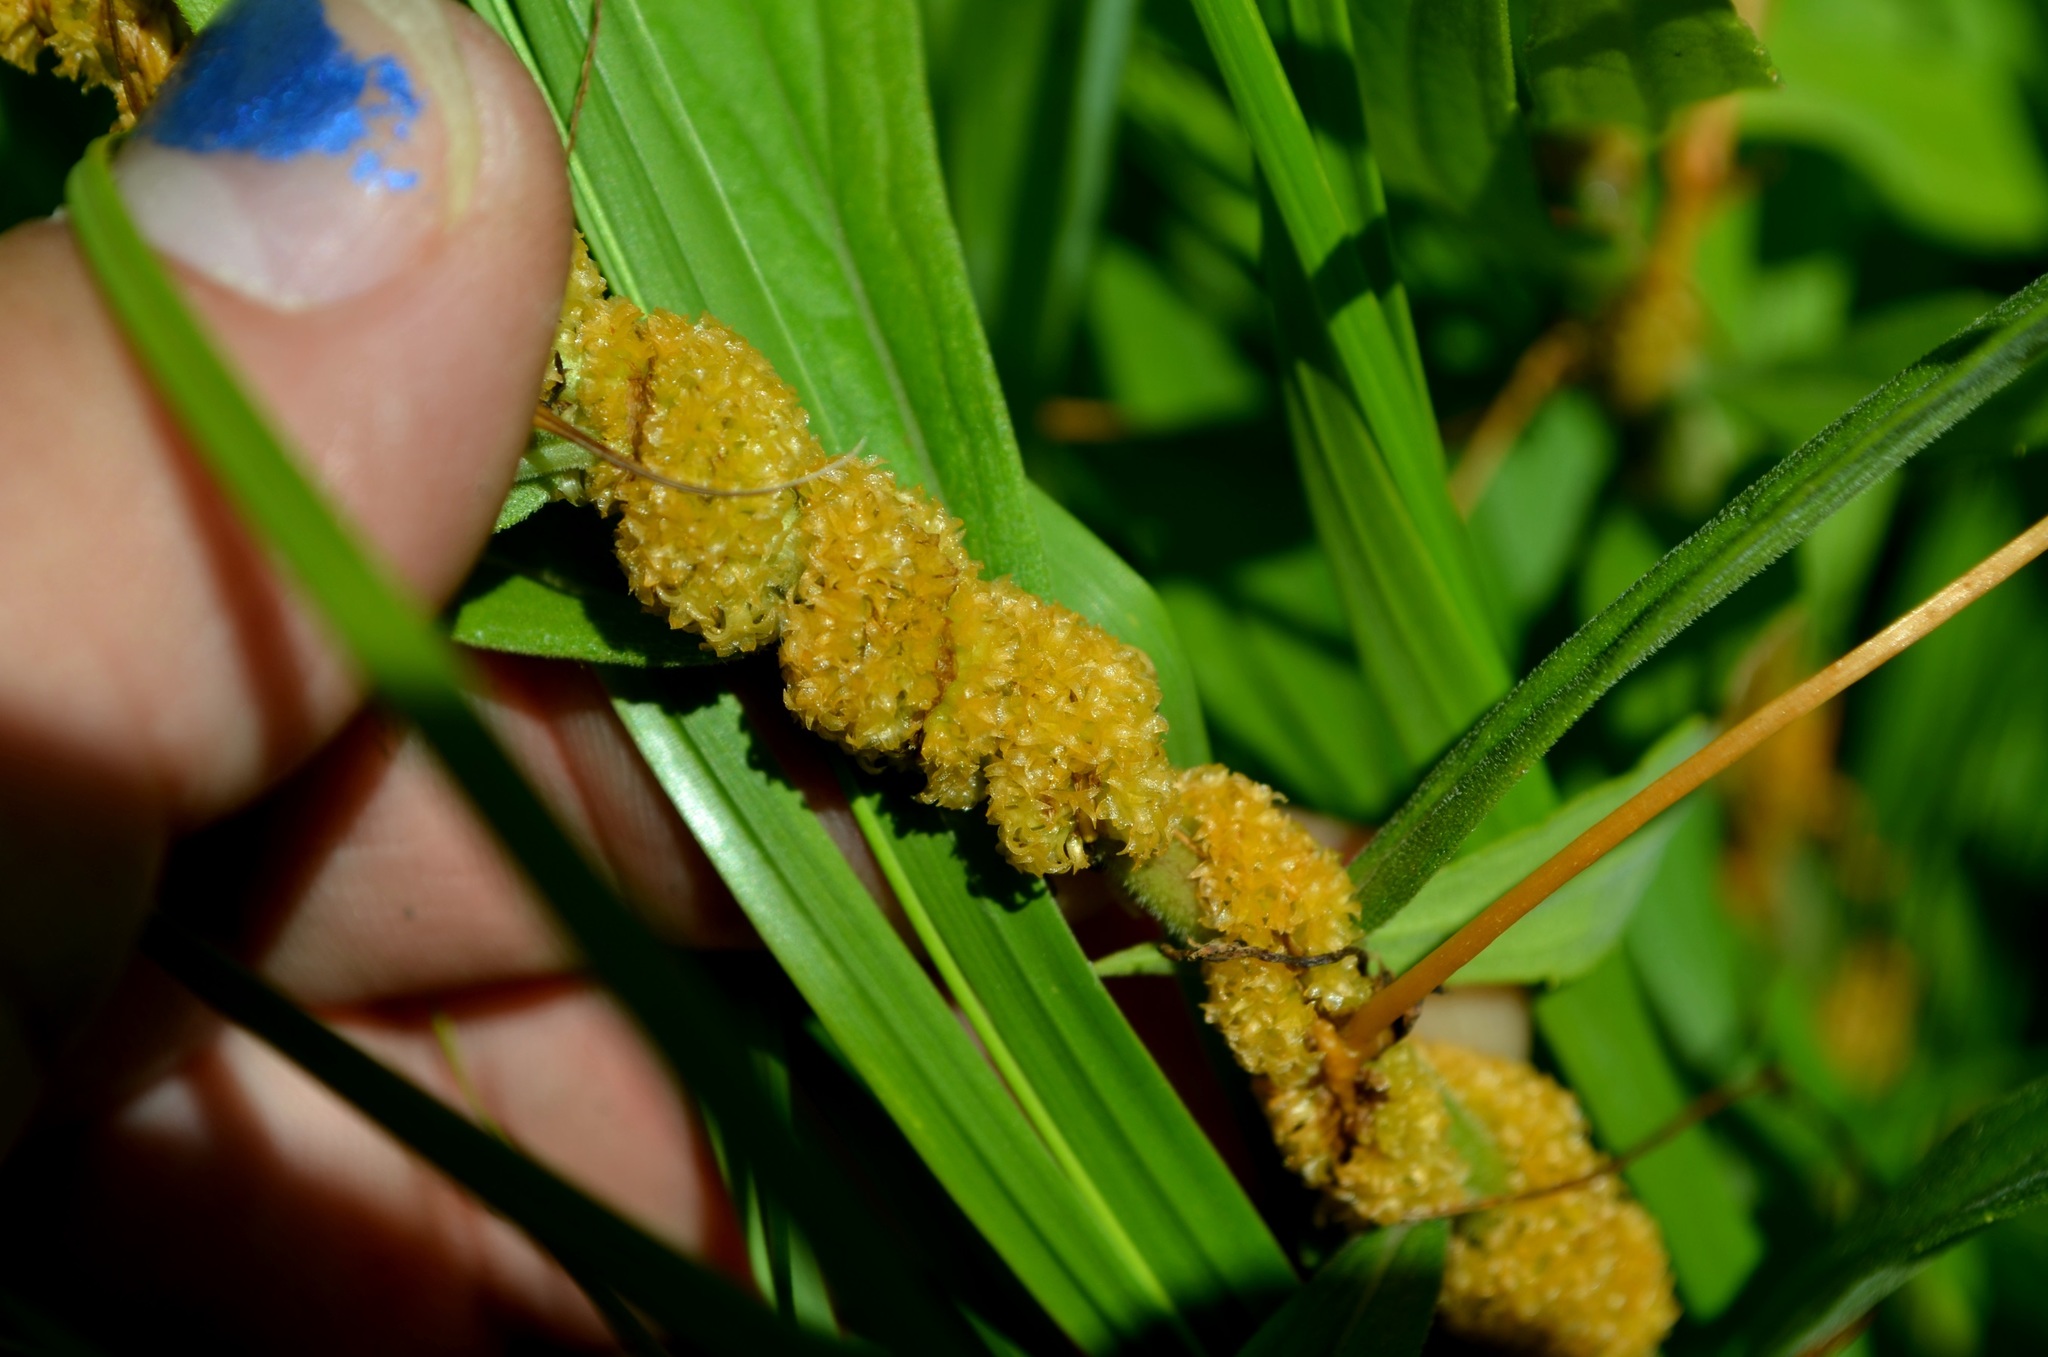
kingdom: Plantae
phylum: Tracheophyta
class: Magnoliopsida
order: Solanales
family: Convolvulaceae
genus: Cuscuta
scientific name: Cuscuta glomerata
